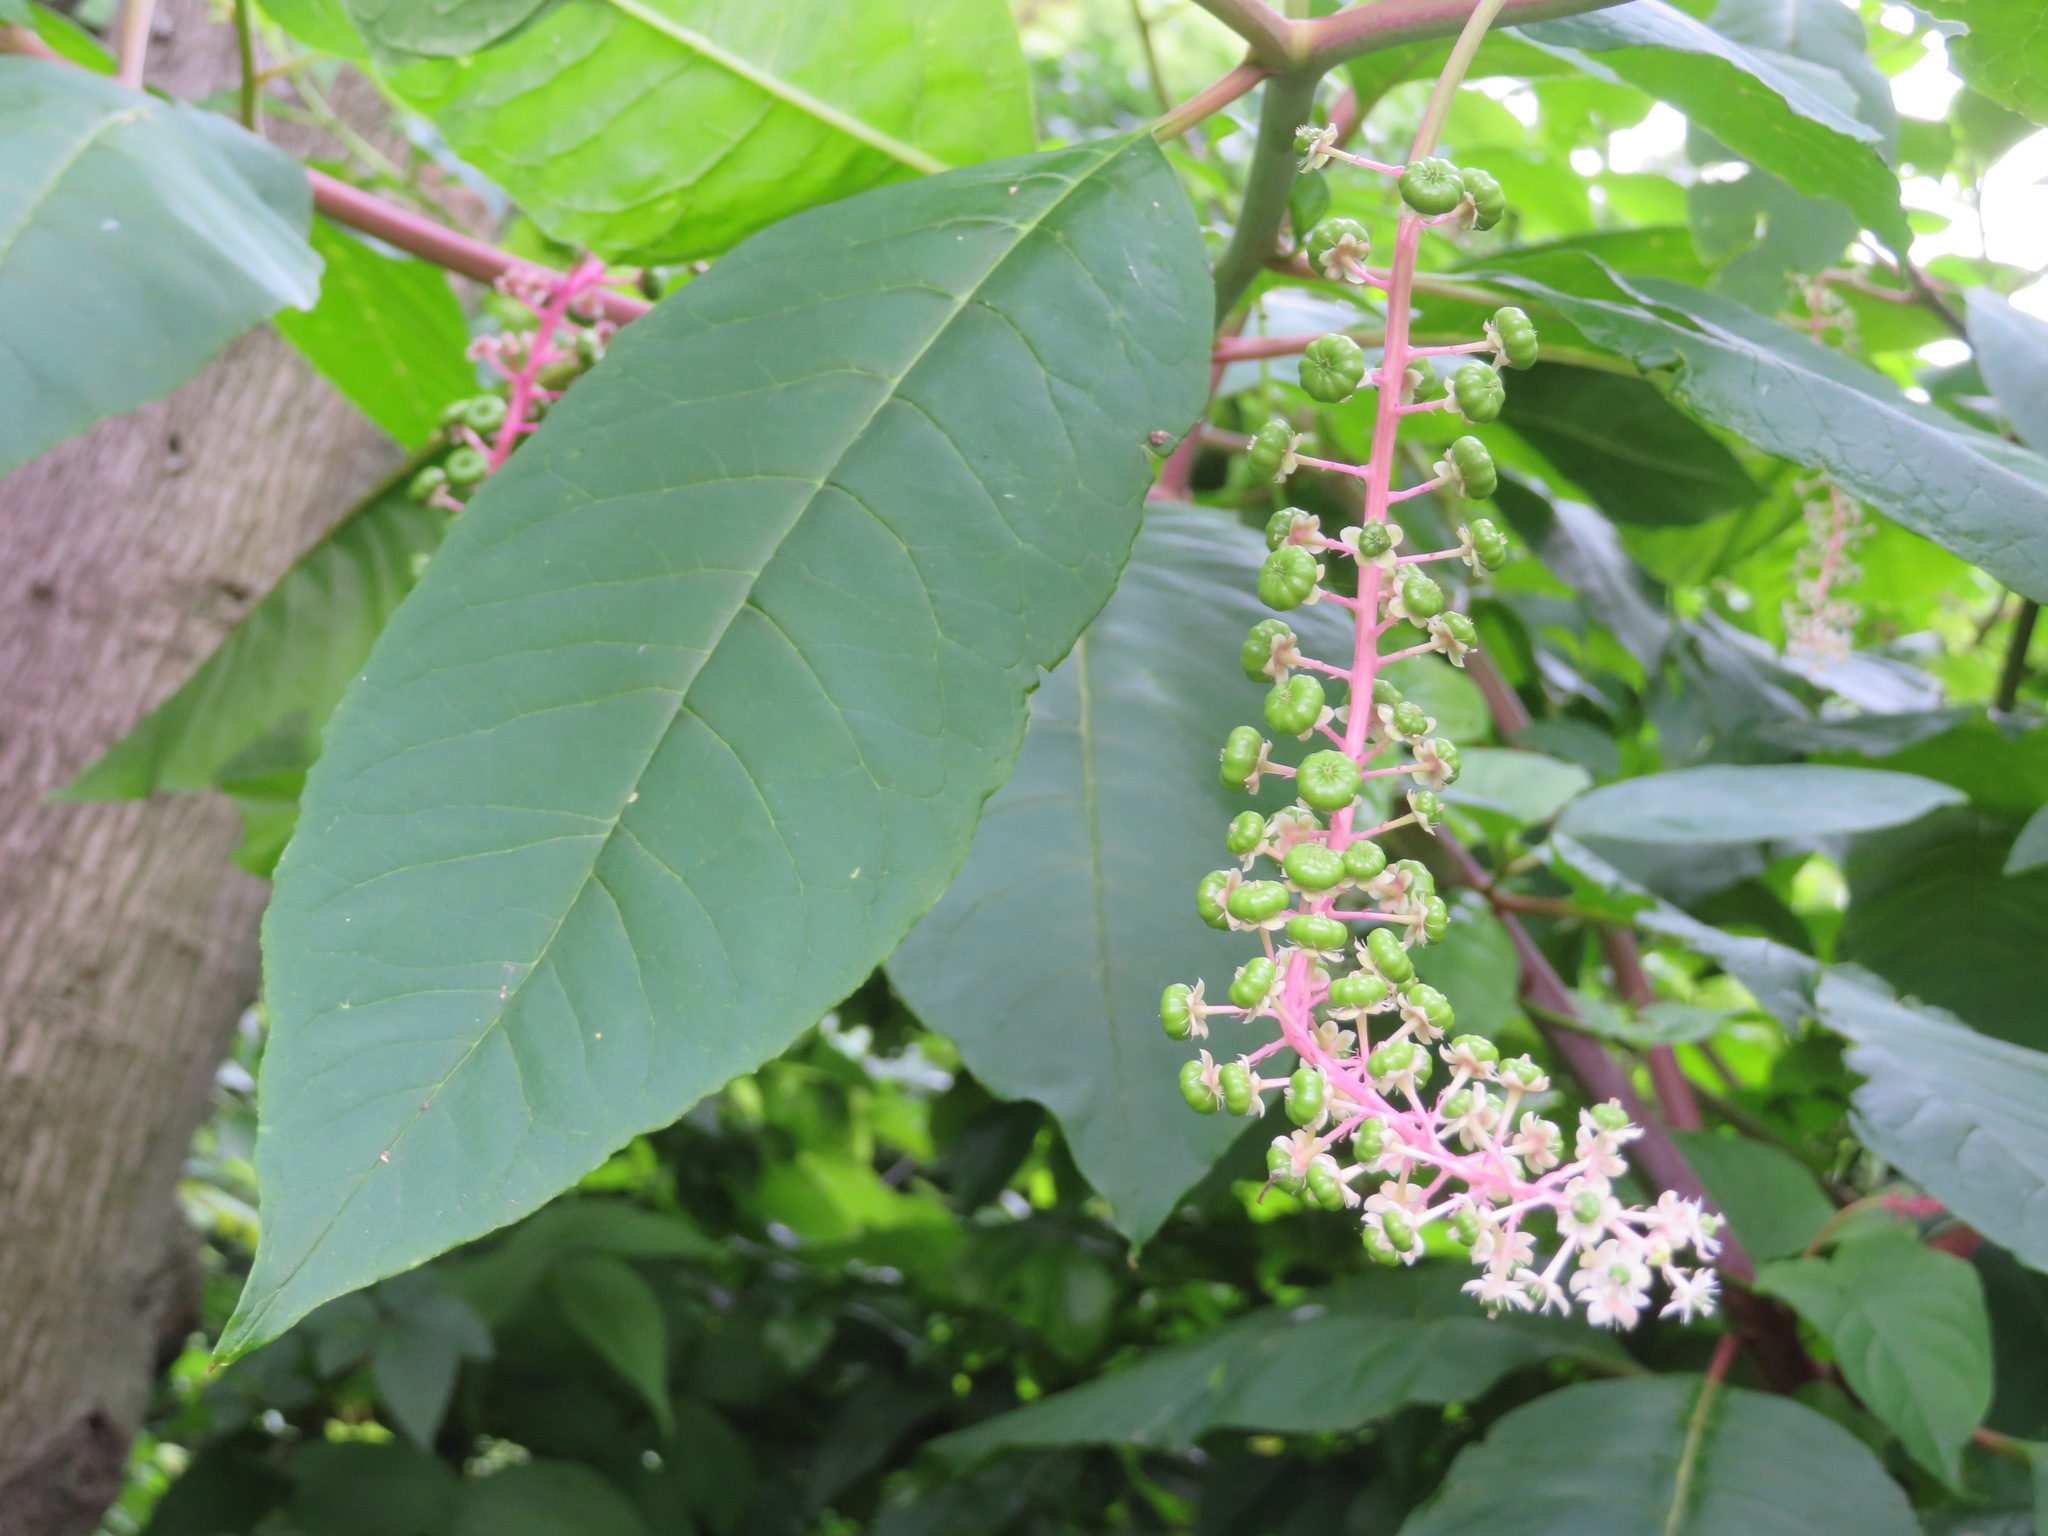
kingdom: Plantae
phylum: Tracheophyta
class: Magnoliopsida
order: Caryophyllales
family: Phytolaccaceae
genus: Phytolacca
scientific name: Phytolacca americana
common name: American pokeweed
